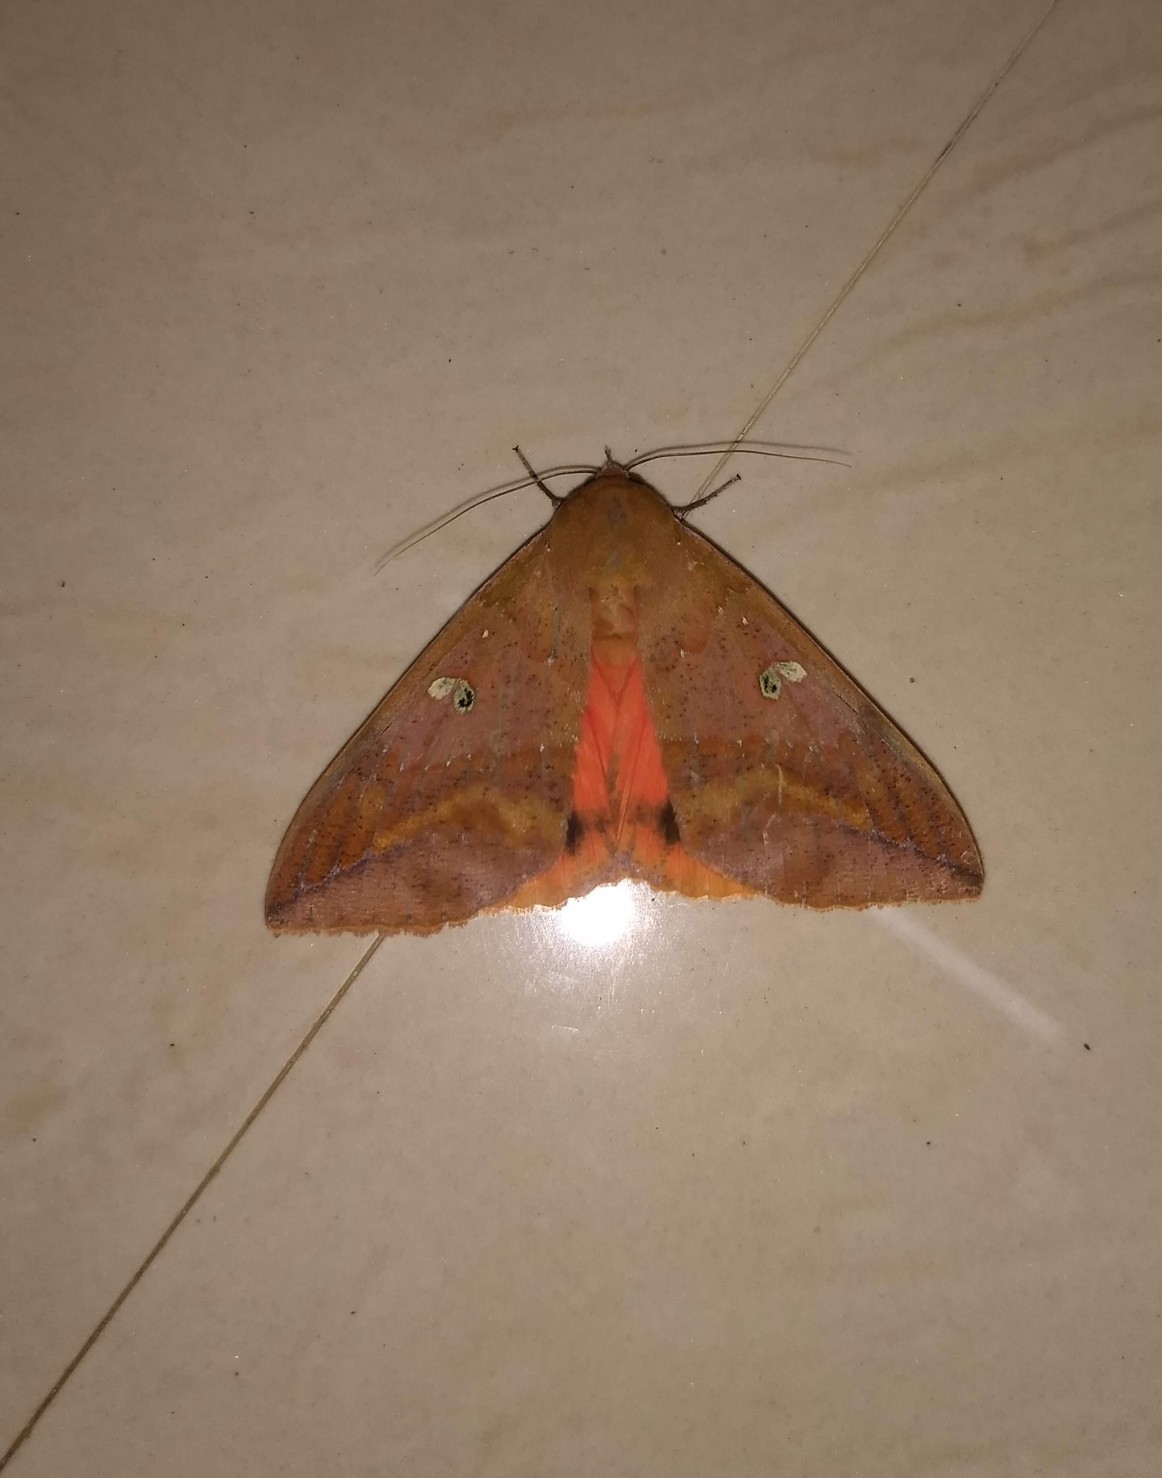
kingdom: Animalia
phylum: Arthropoda
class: Insecta
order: Lepidoptera
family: Erebidae
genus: Thyas
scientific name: Thyas honesta
